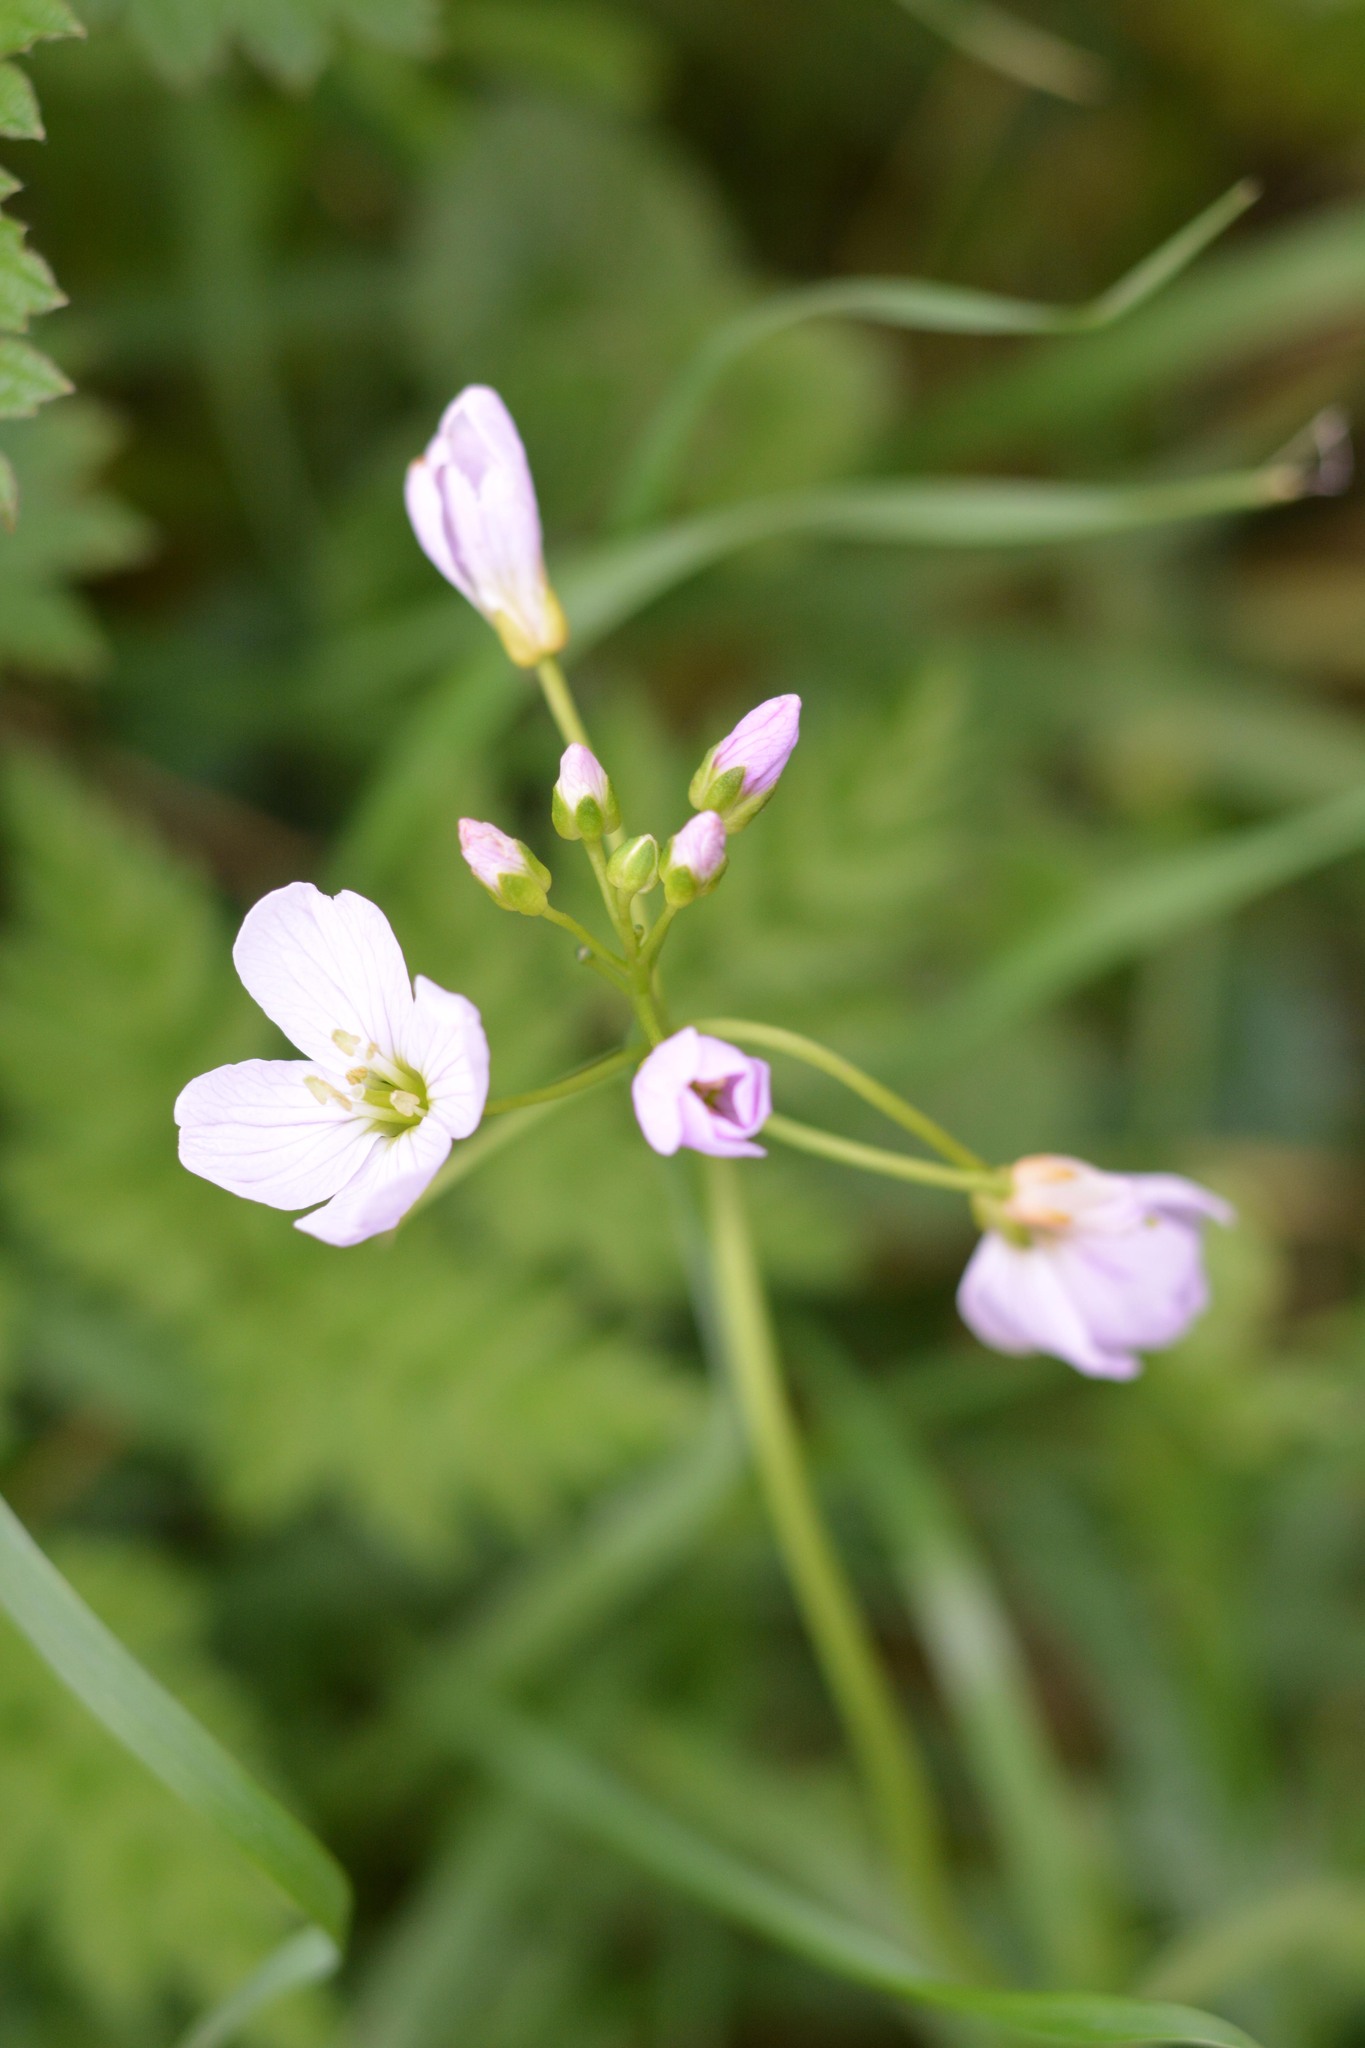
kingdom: Plantae
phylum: Tracheophyta
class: Magnoliopsida
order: Brassicales
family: Brassicaceae
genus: Cardamine
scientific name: Cardamine pratensis
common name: Cuckoo flower
